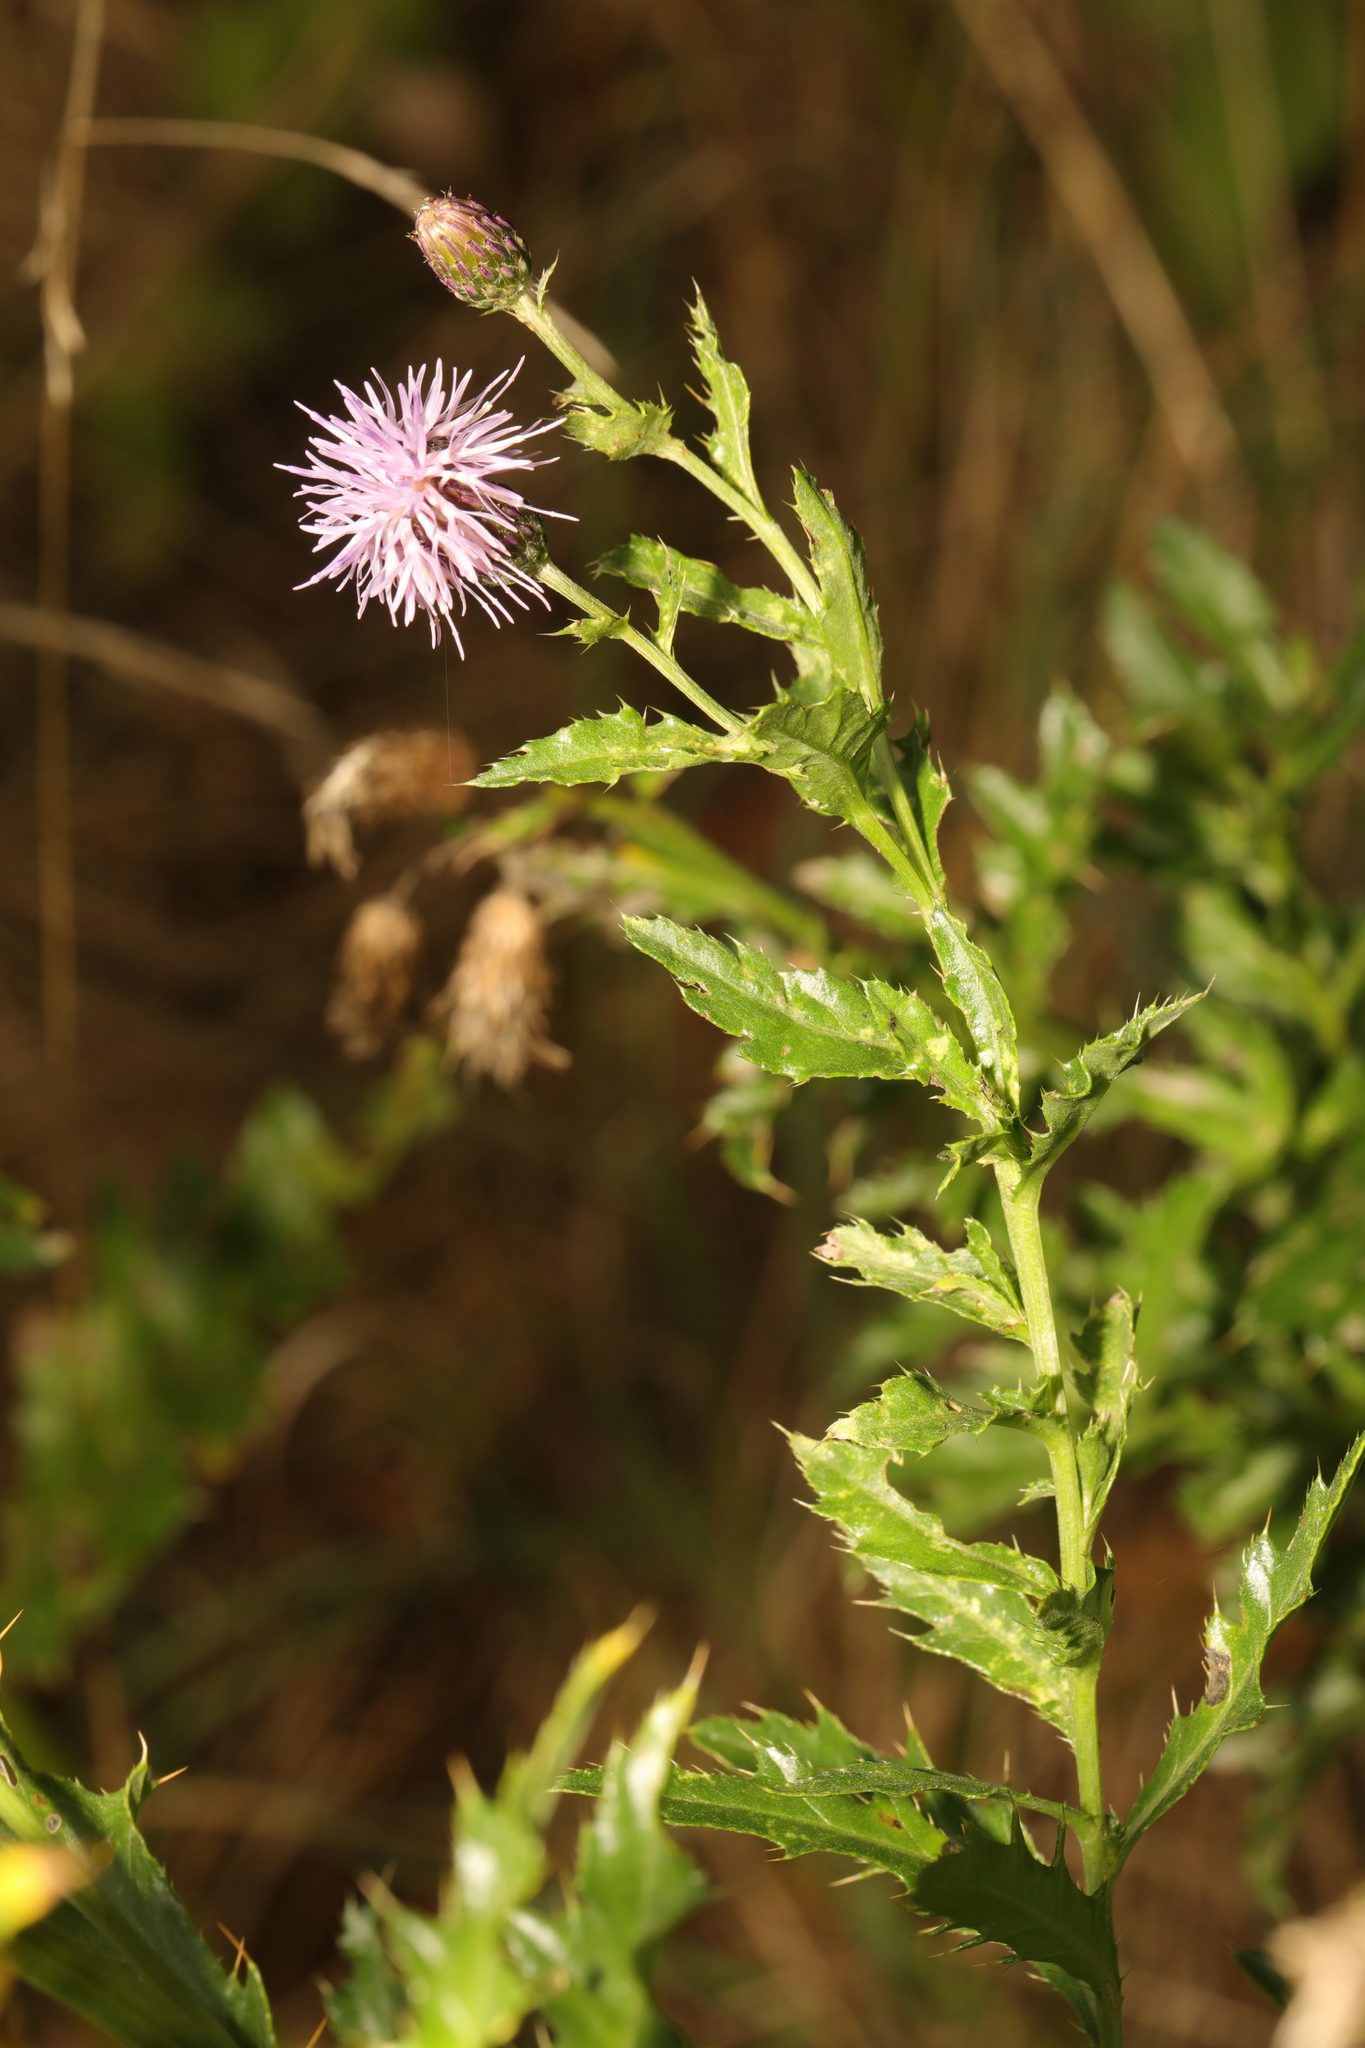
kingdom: Plantae
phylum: Tracheophyta
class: Magnoliopsida
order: Asterales
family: Asteraceae
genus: Cirsium
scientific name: Cirsium arvense
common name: Creeping thistle
